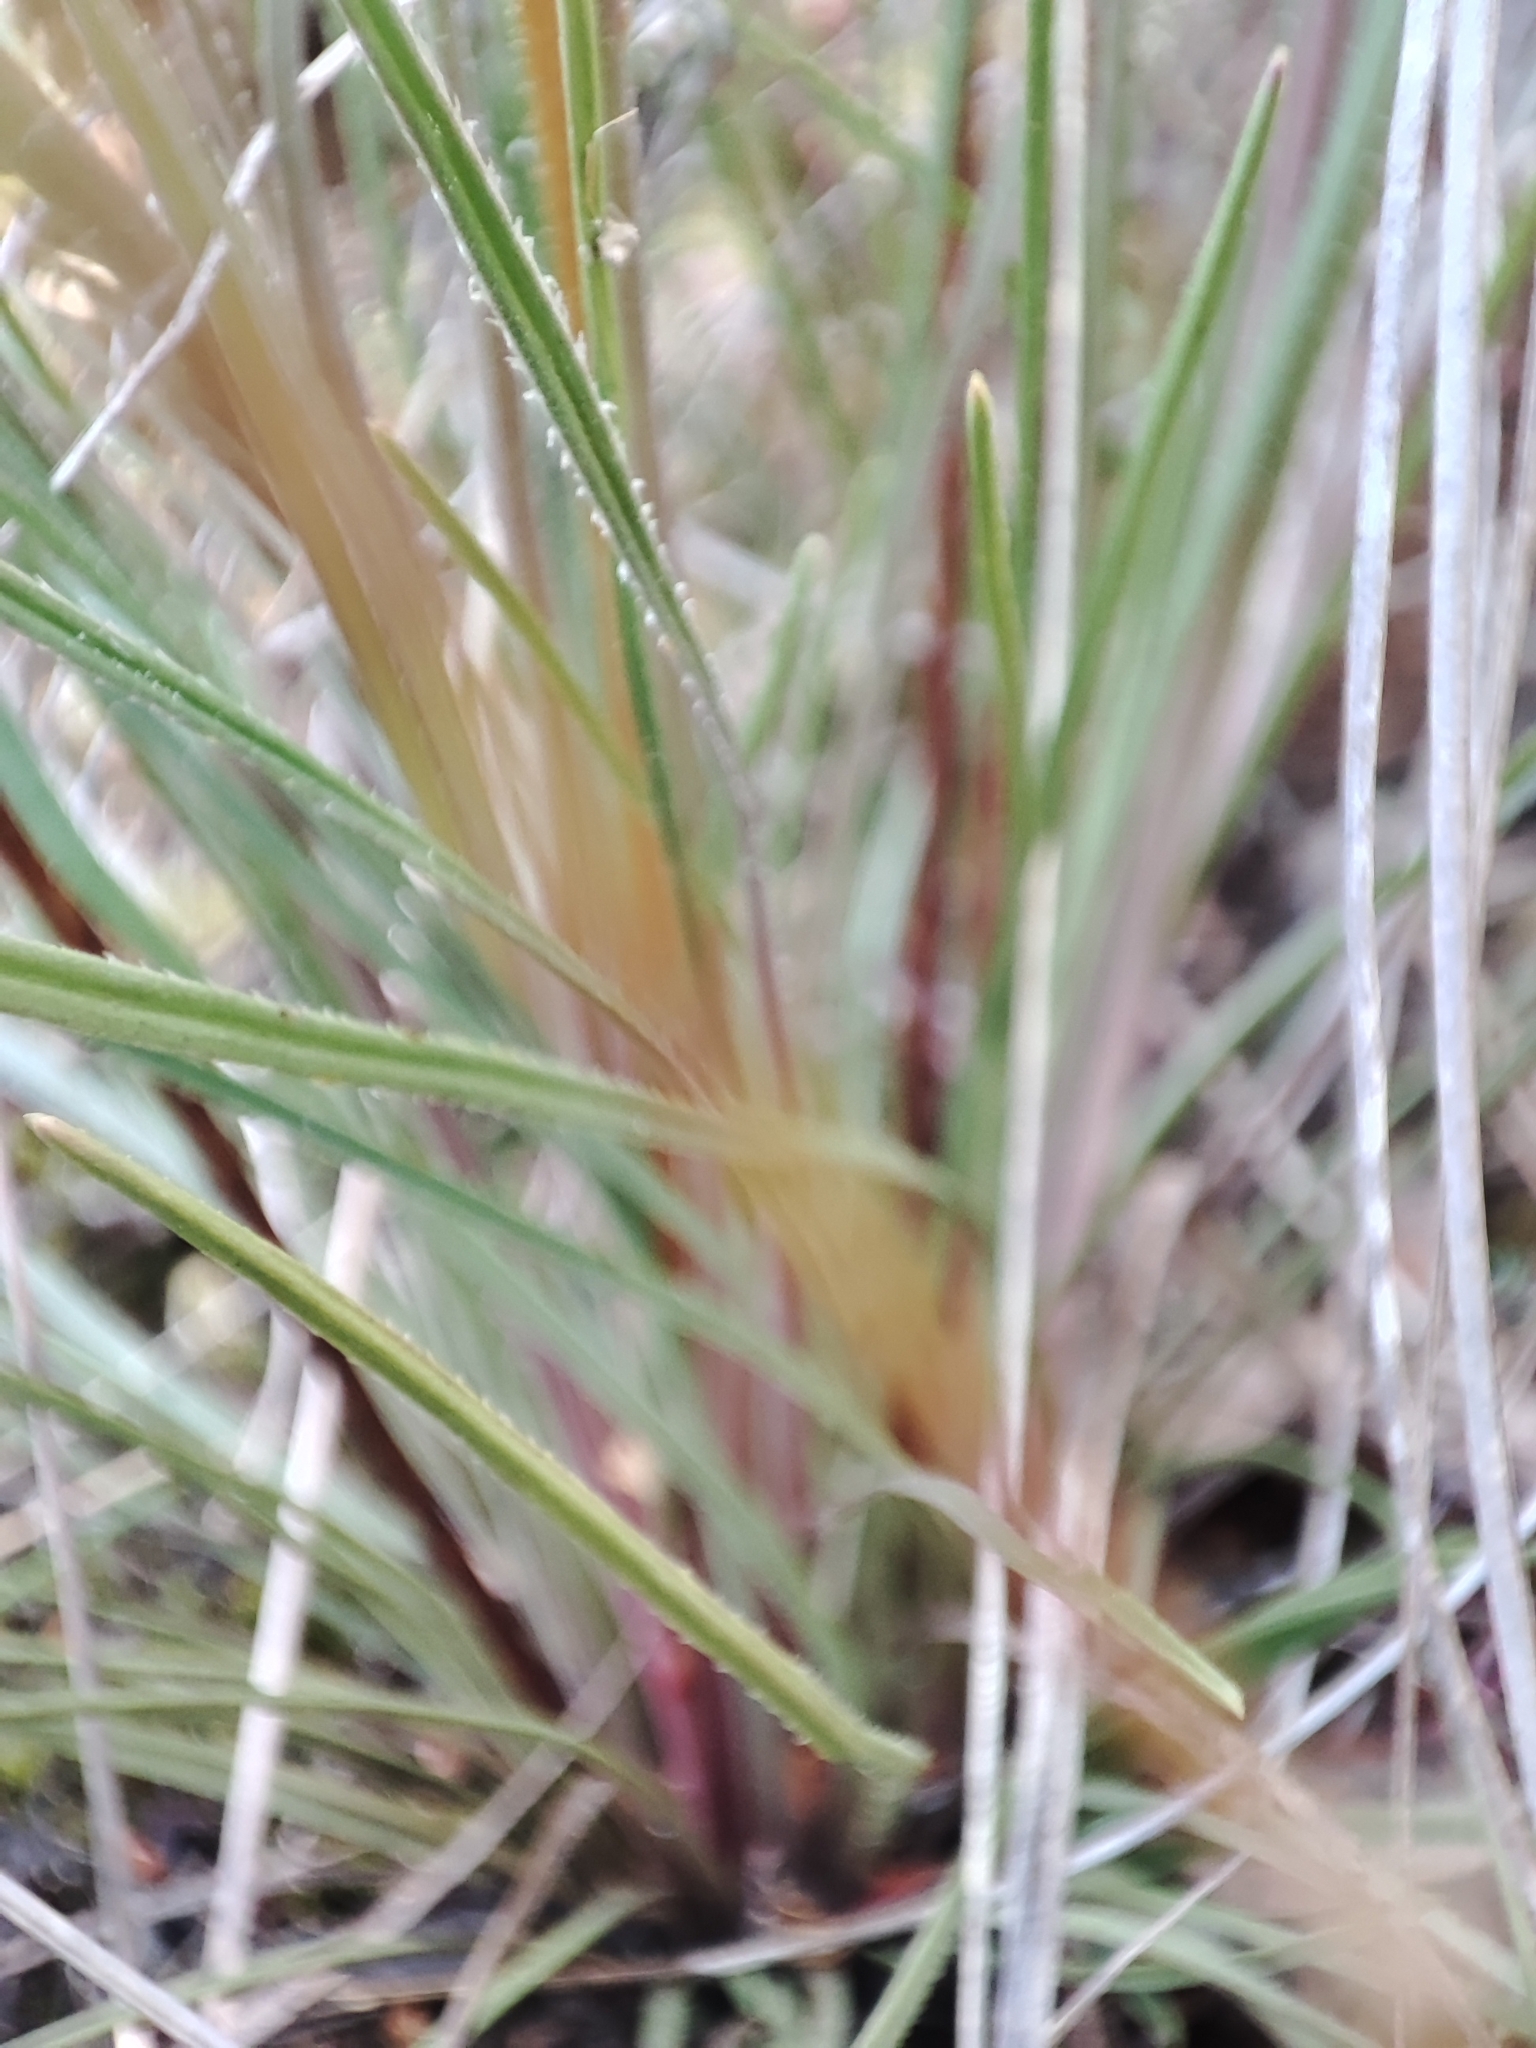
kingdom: Plantae
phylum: Tracheophyta
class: Magnoliopsida
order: Asterales
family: Stylidiaceae
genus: Stylidium
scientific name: Stylidium graminifolium
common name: Grass triggerplant
